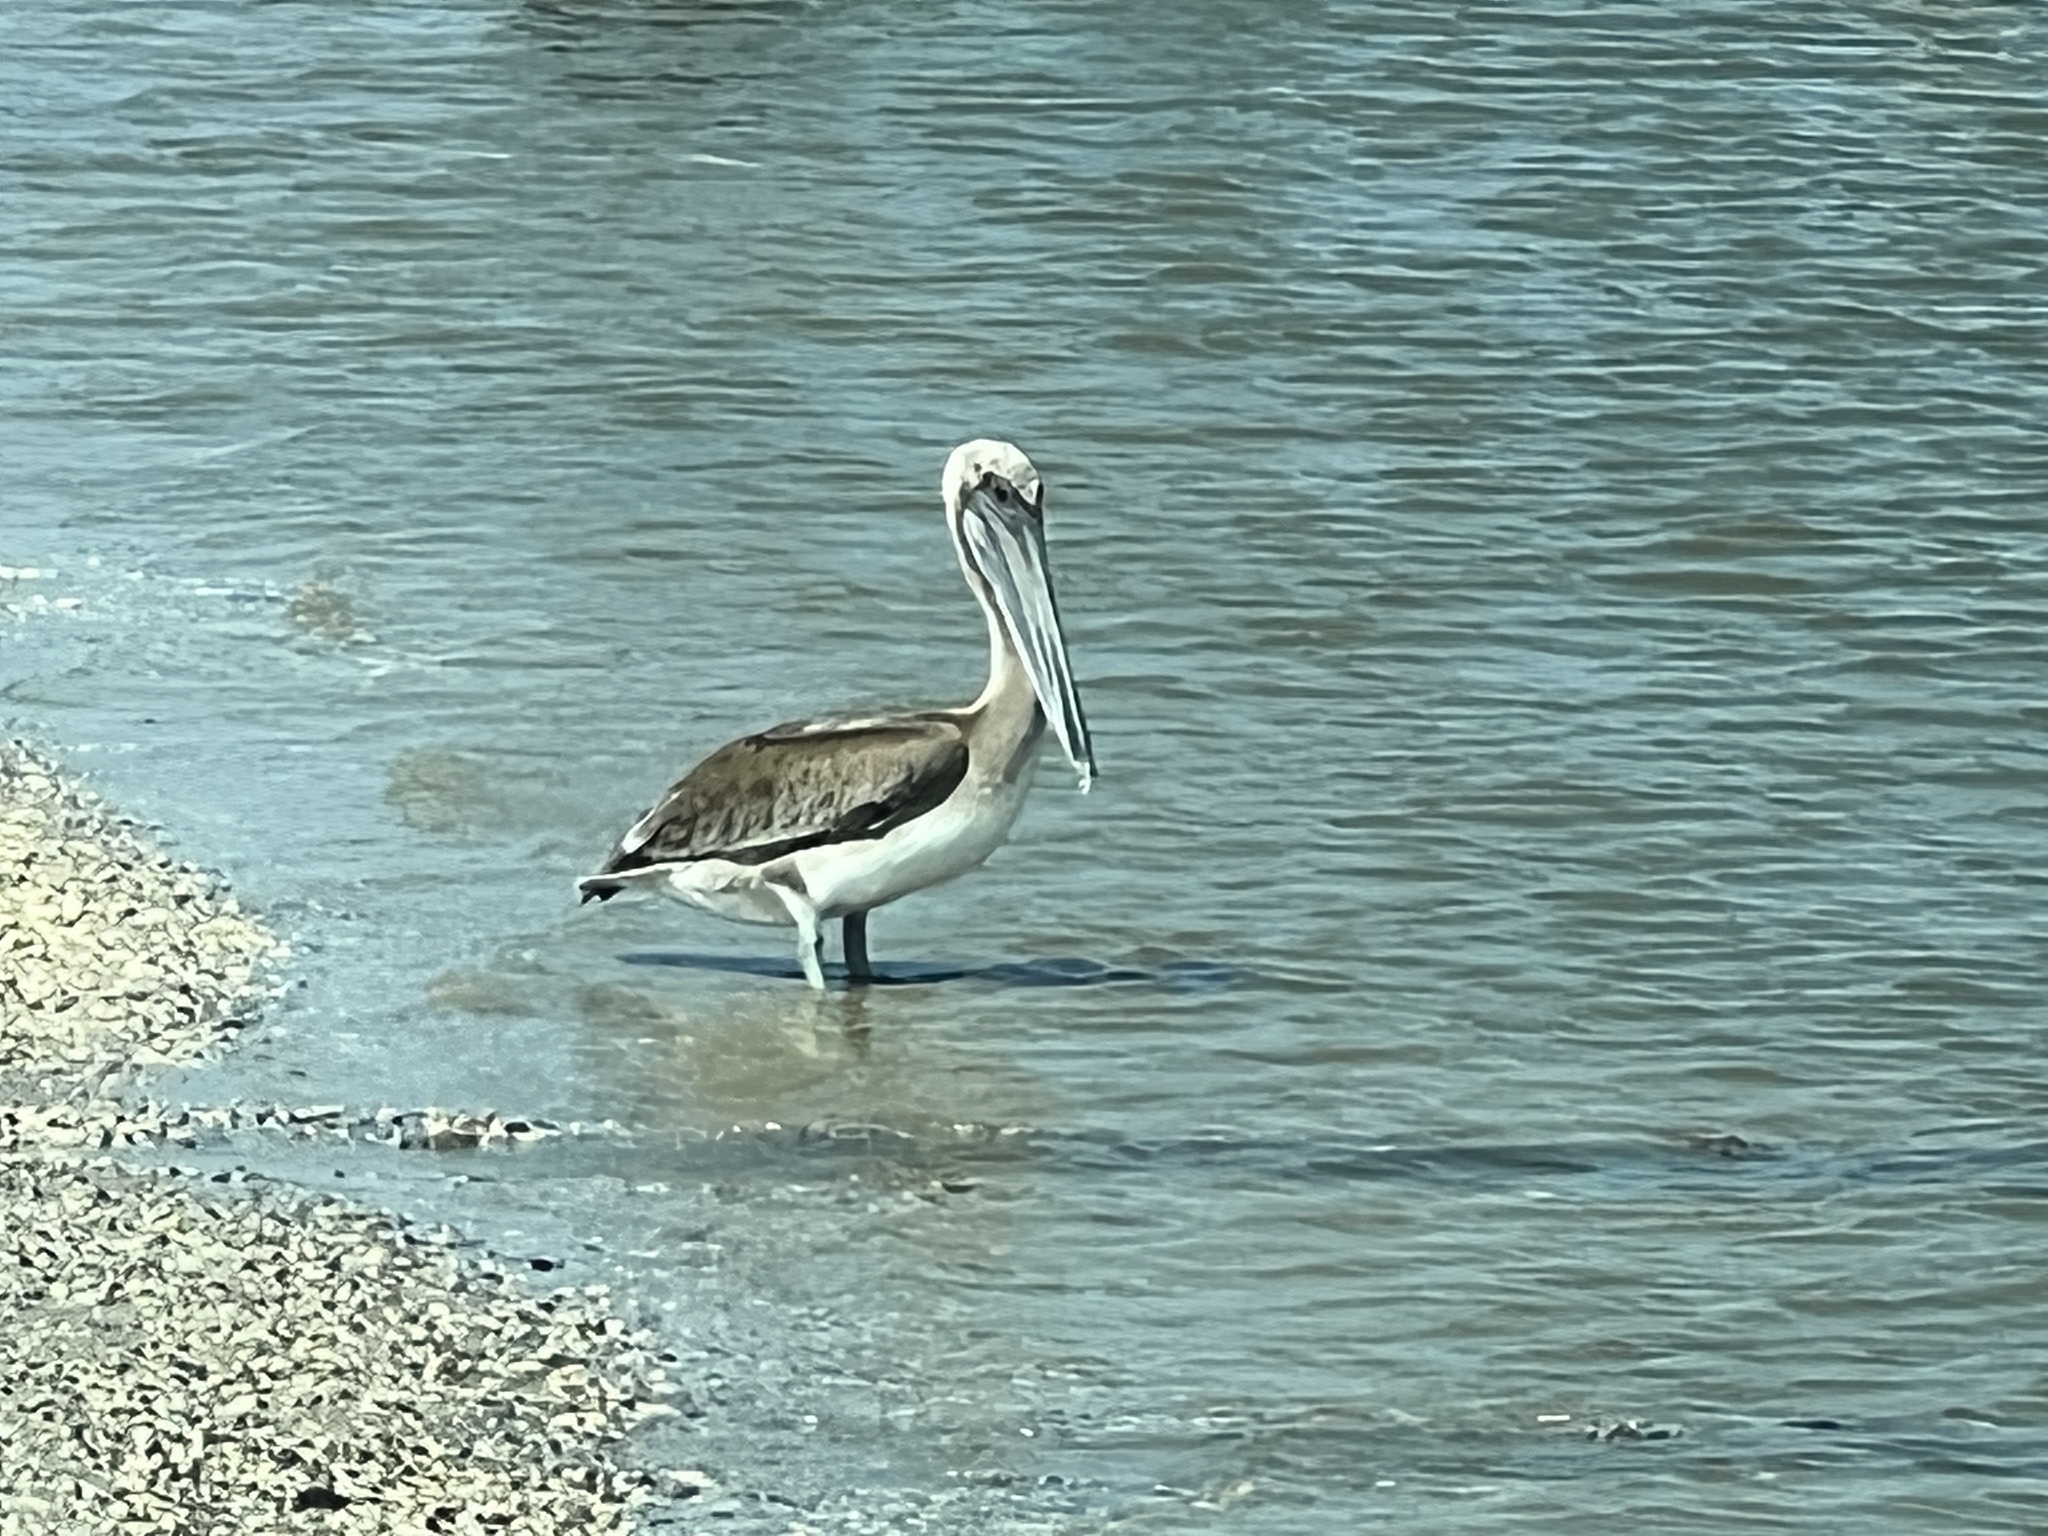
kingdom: Animalia
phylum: Chordata
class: Aves
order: Pelecaniformes
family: Pelecanidae
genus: Pelecanus
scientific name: Pelecanus occidentalis
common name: Brown pelican
